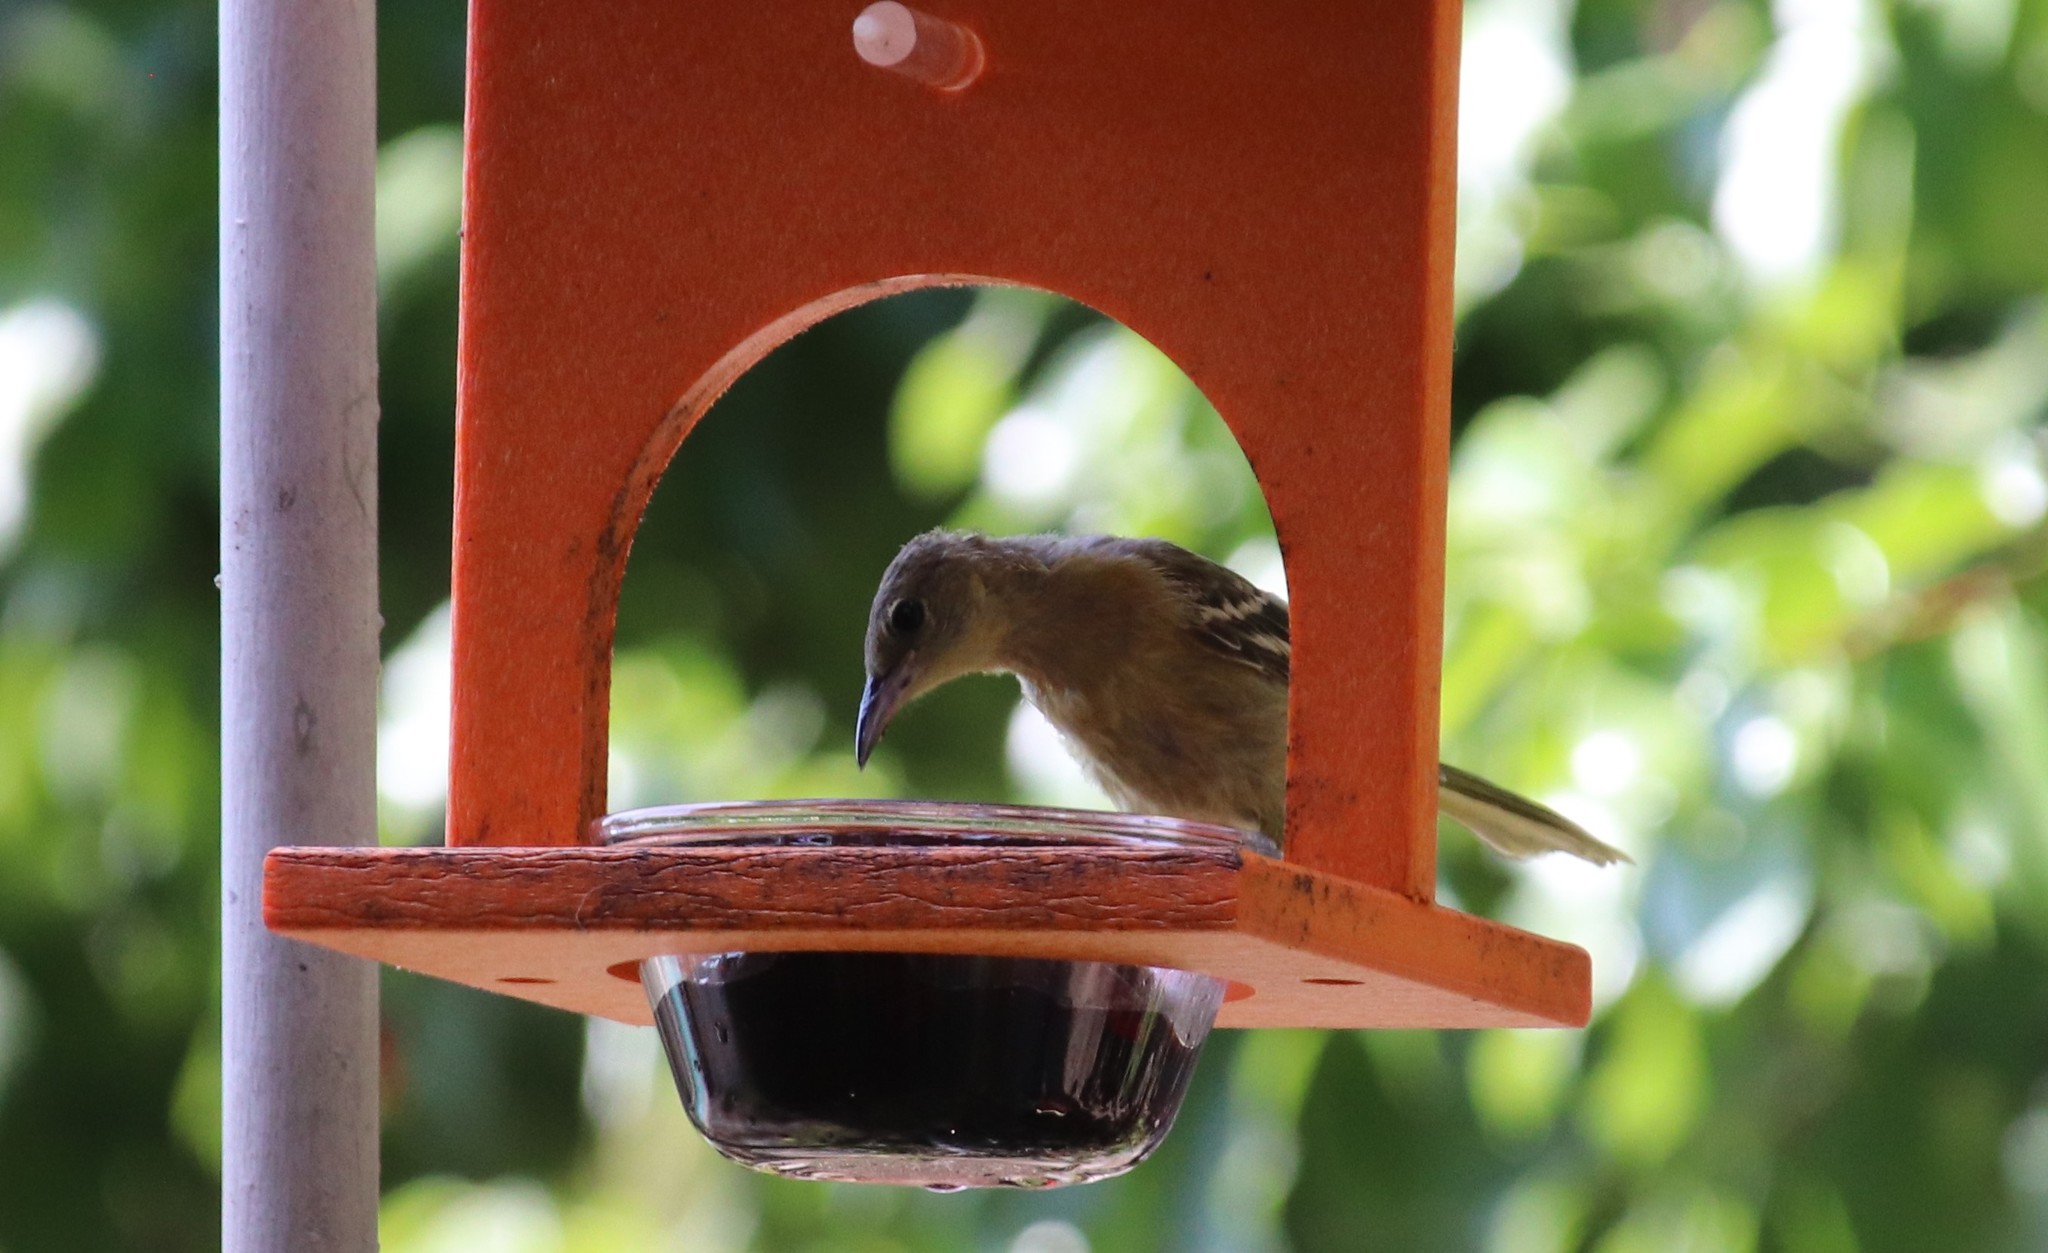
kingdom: Animalia
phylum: Chordata
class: Aves
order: Passeriformes
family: Icteridae
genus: Icterus
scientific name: Icterus cucullatus
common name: Hooded oriole
